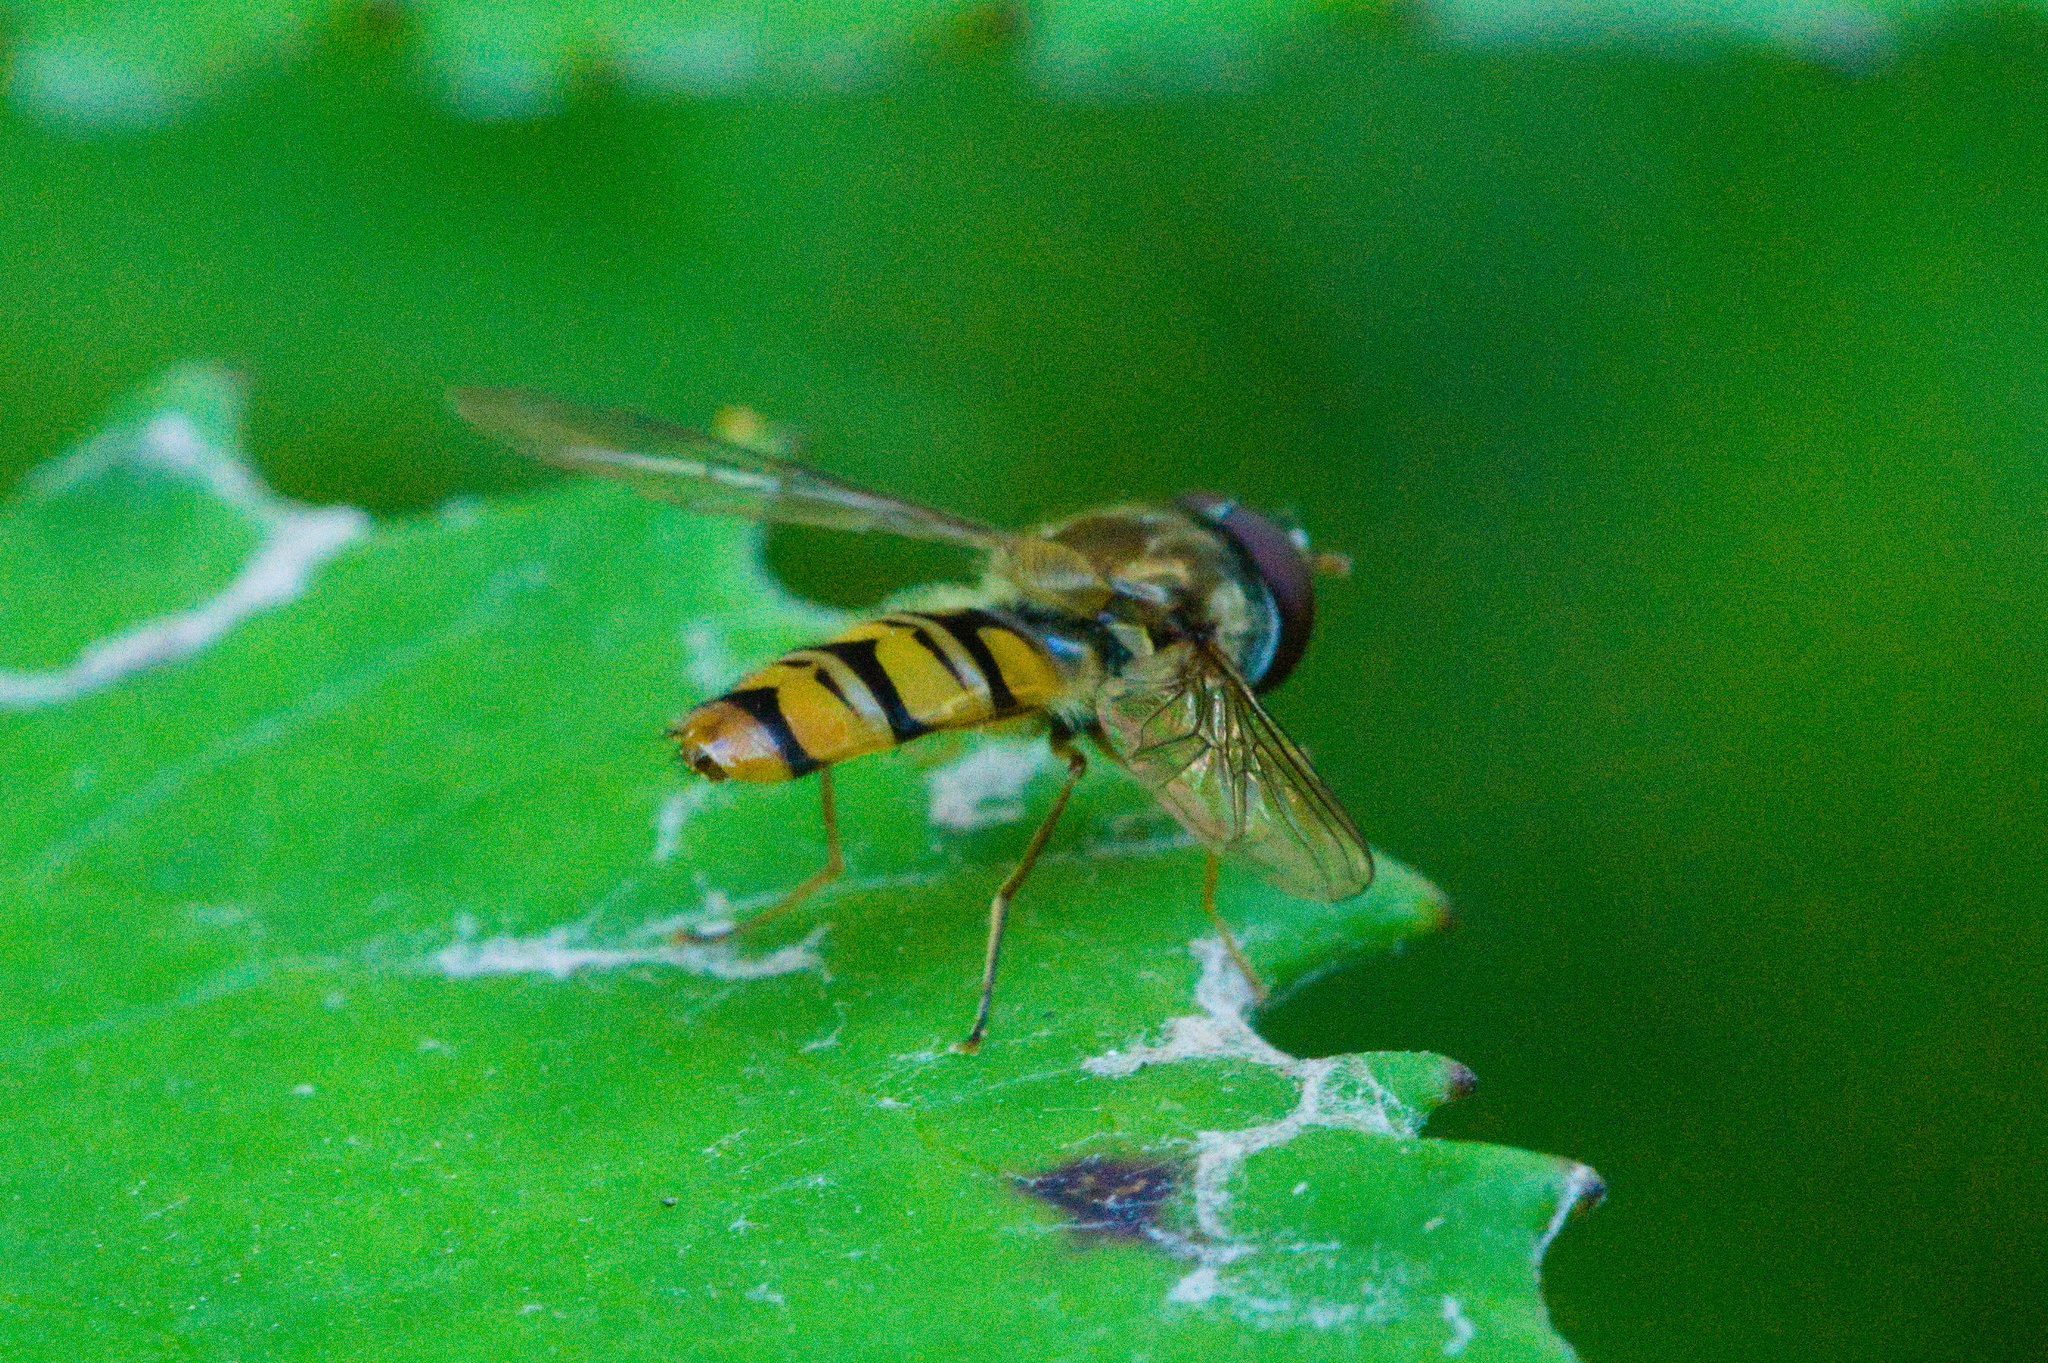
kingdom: Animalia
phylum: Arthropoda
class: Insecta
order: Diptera
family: Syrphidae
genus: Episyrphus
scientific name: Episyrphus balteatus
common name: Marmalade hoverfly
